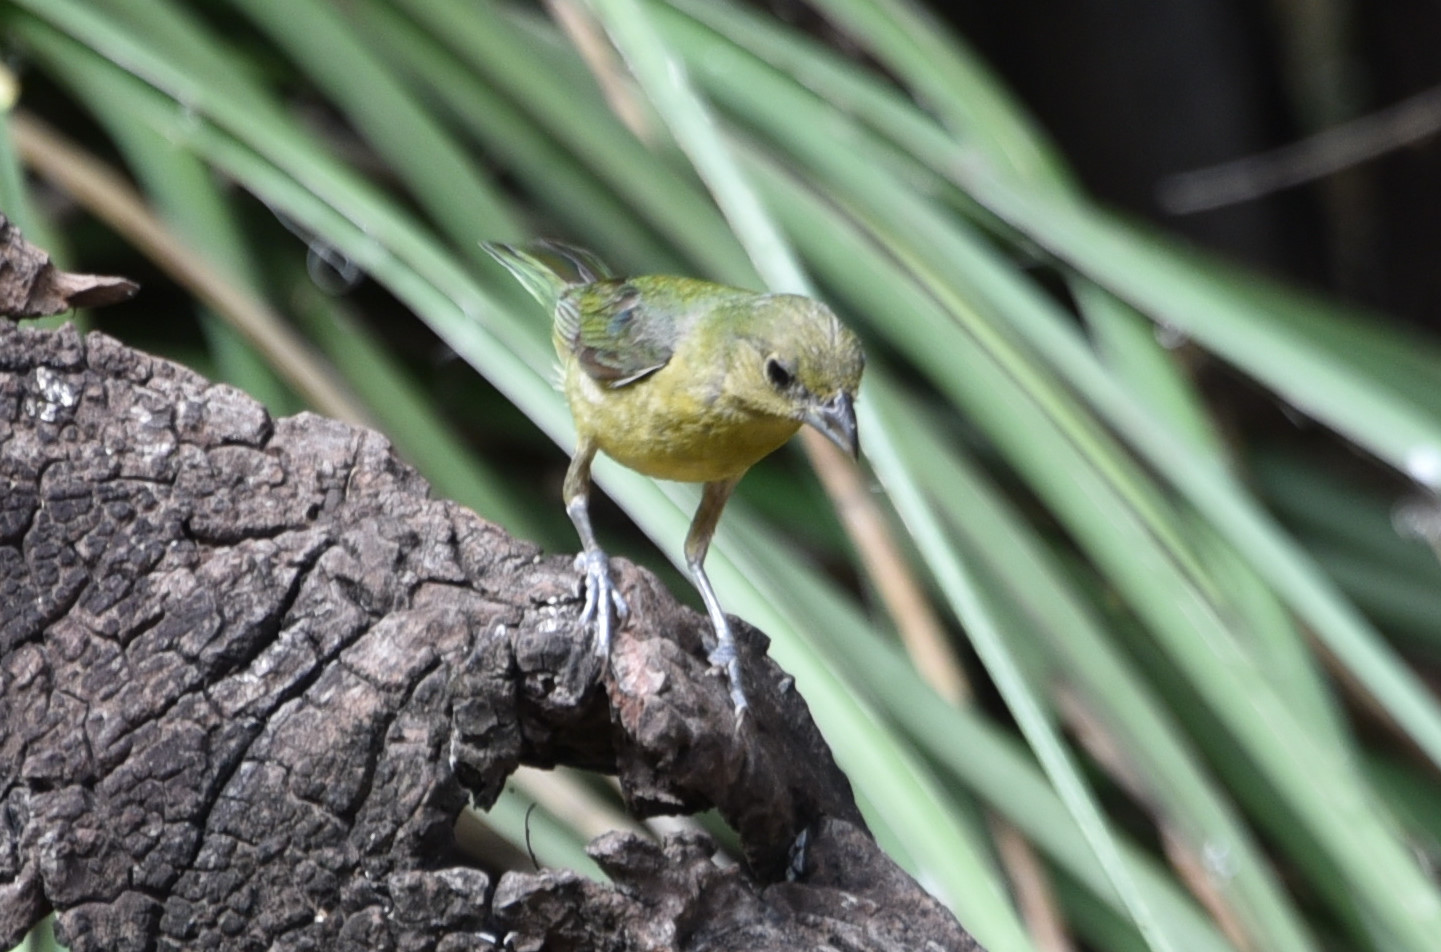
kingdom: Animalia
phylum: Chordata
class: Aves
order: Passeriformes
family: Cardinalidae
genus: Passerina
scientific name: Passerina ciris
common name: Painted bunting
